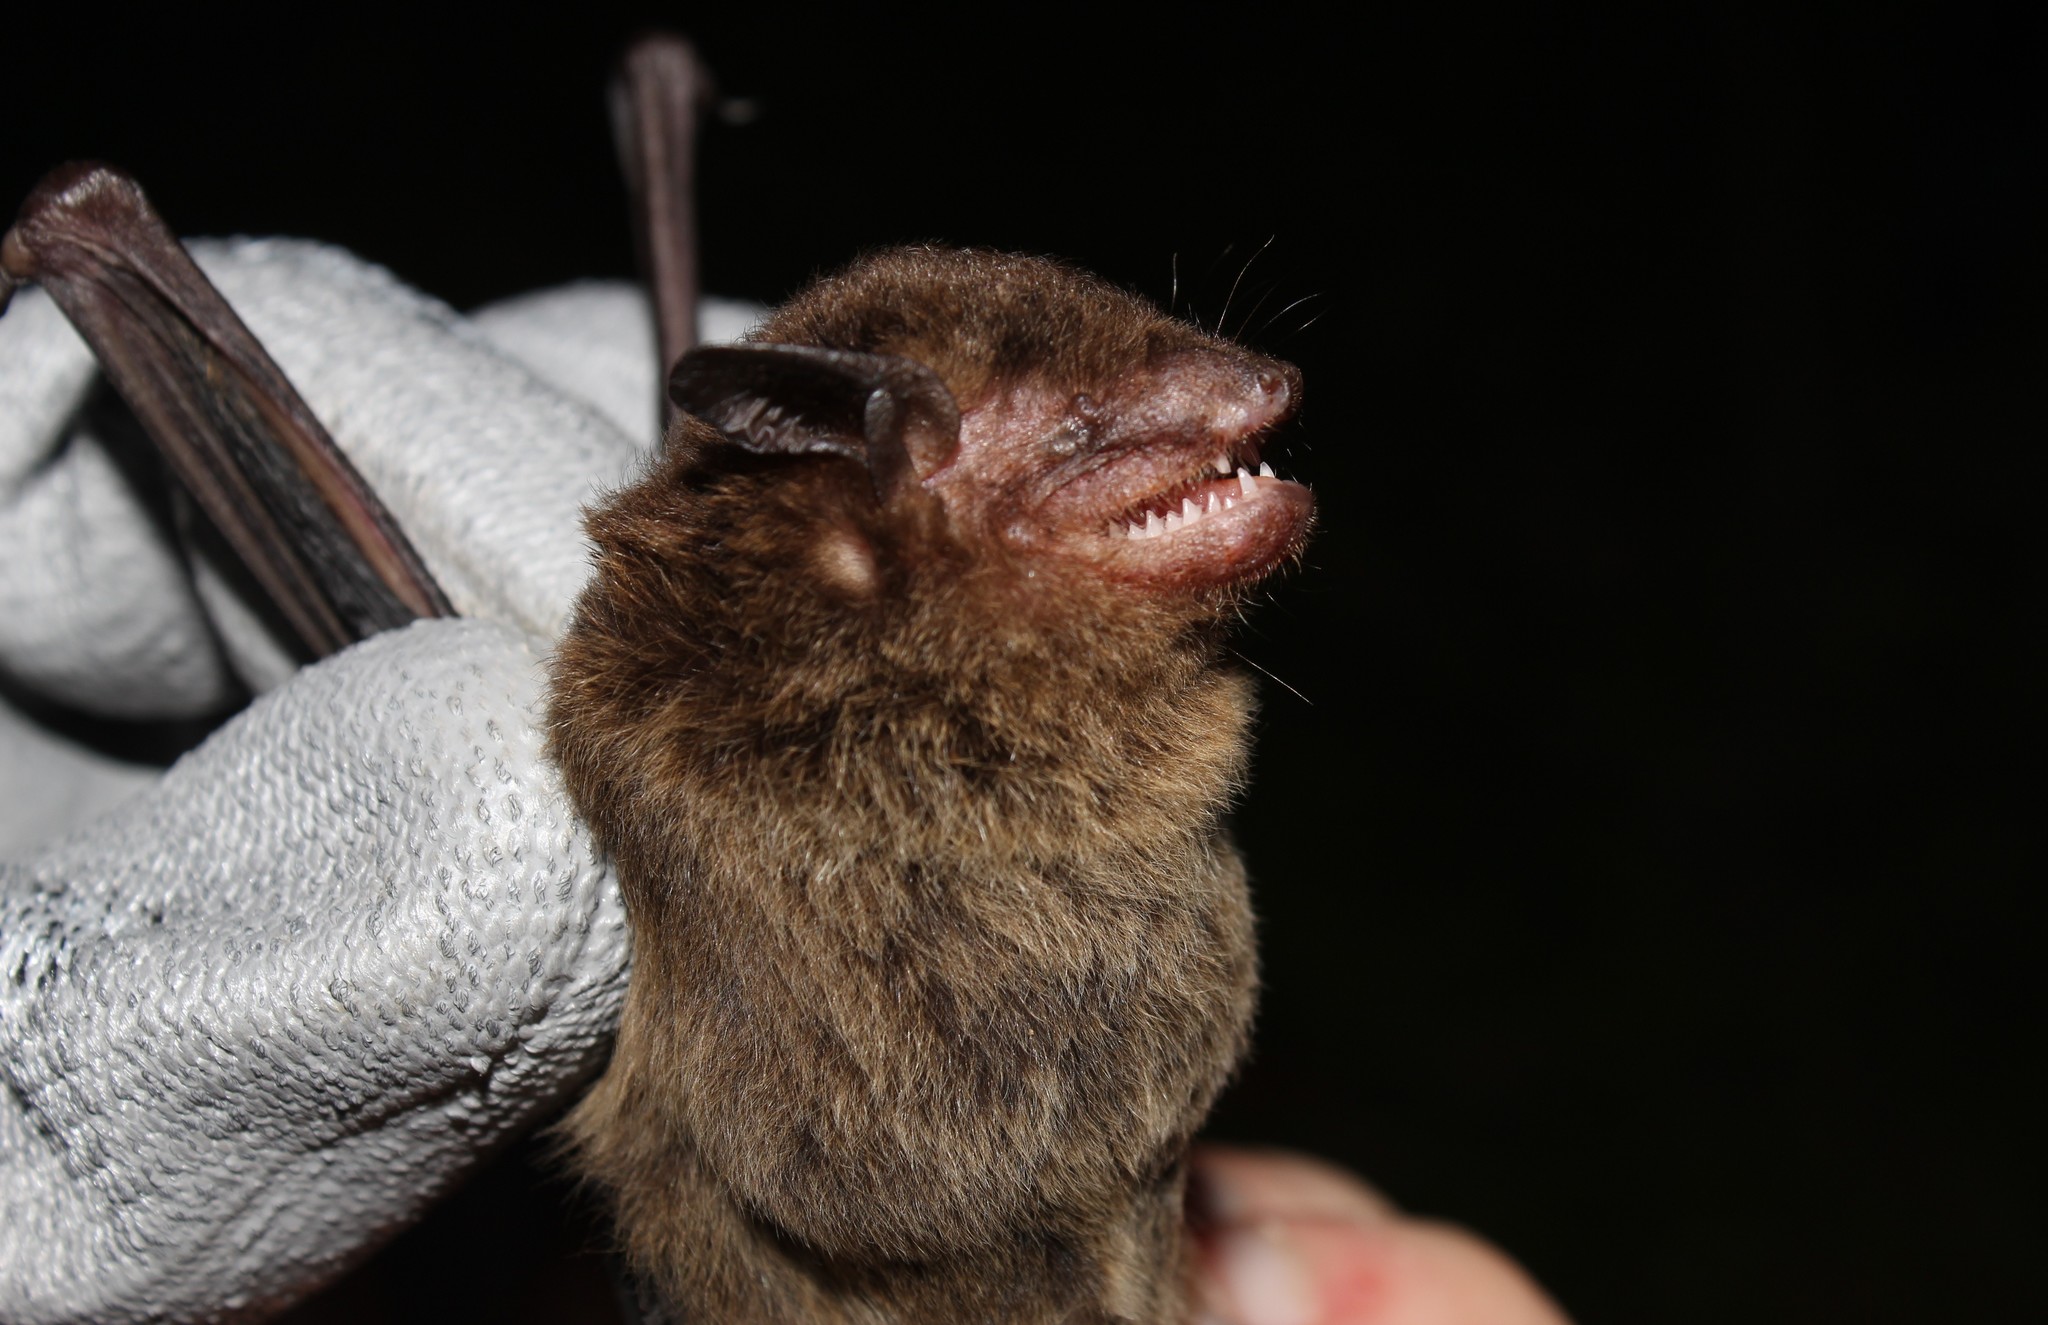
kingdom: Animalia
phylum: Chordata
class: Mammalia
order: Chiroptera
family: Vespertilionidae
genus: Eptesicus
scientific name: Eptesicus brasiliensis
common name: Brazilian brown bat
